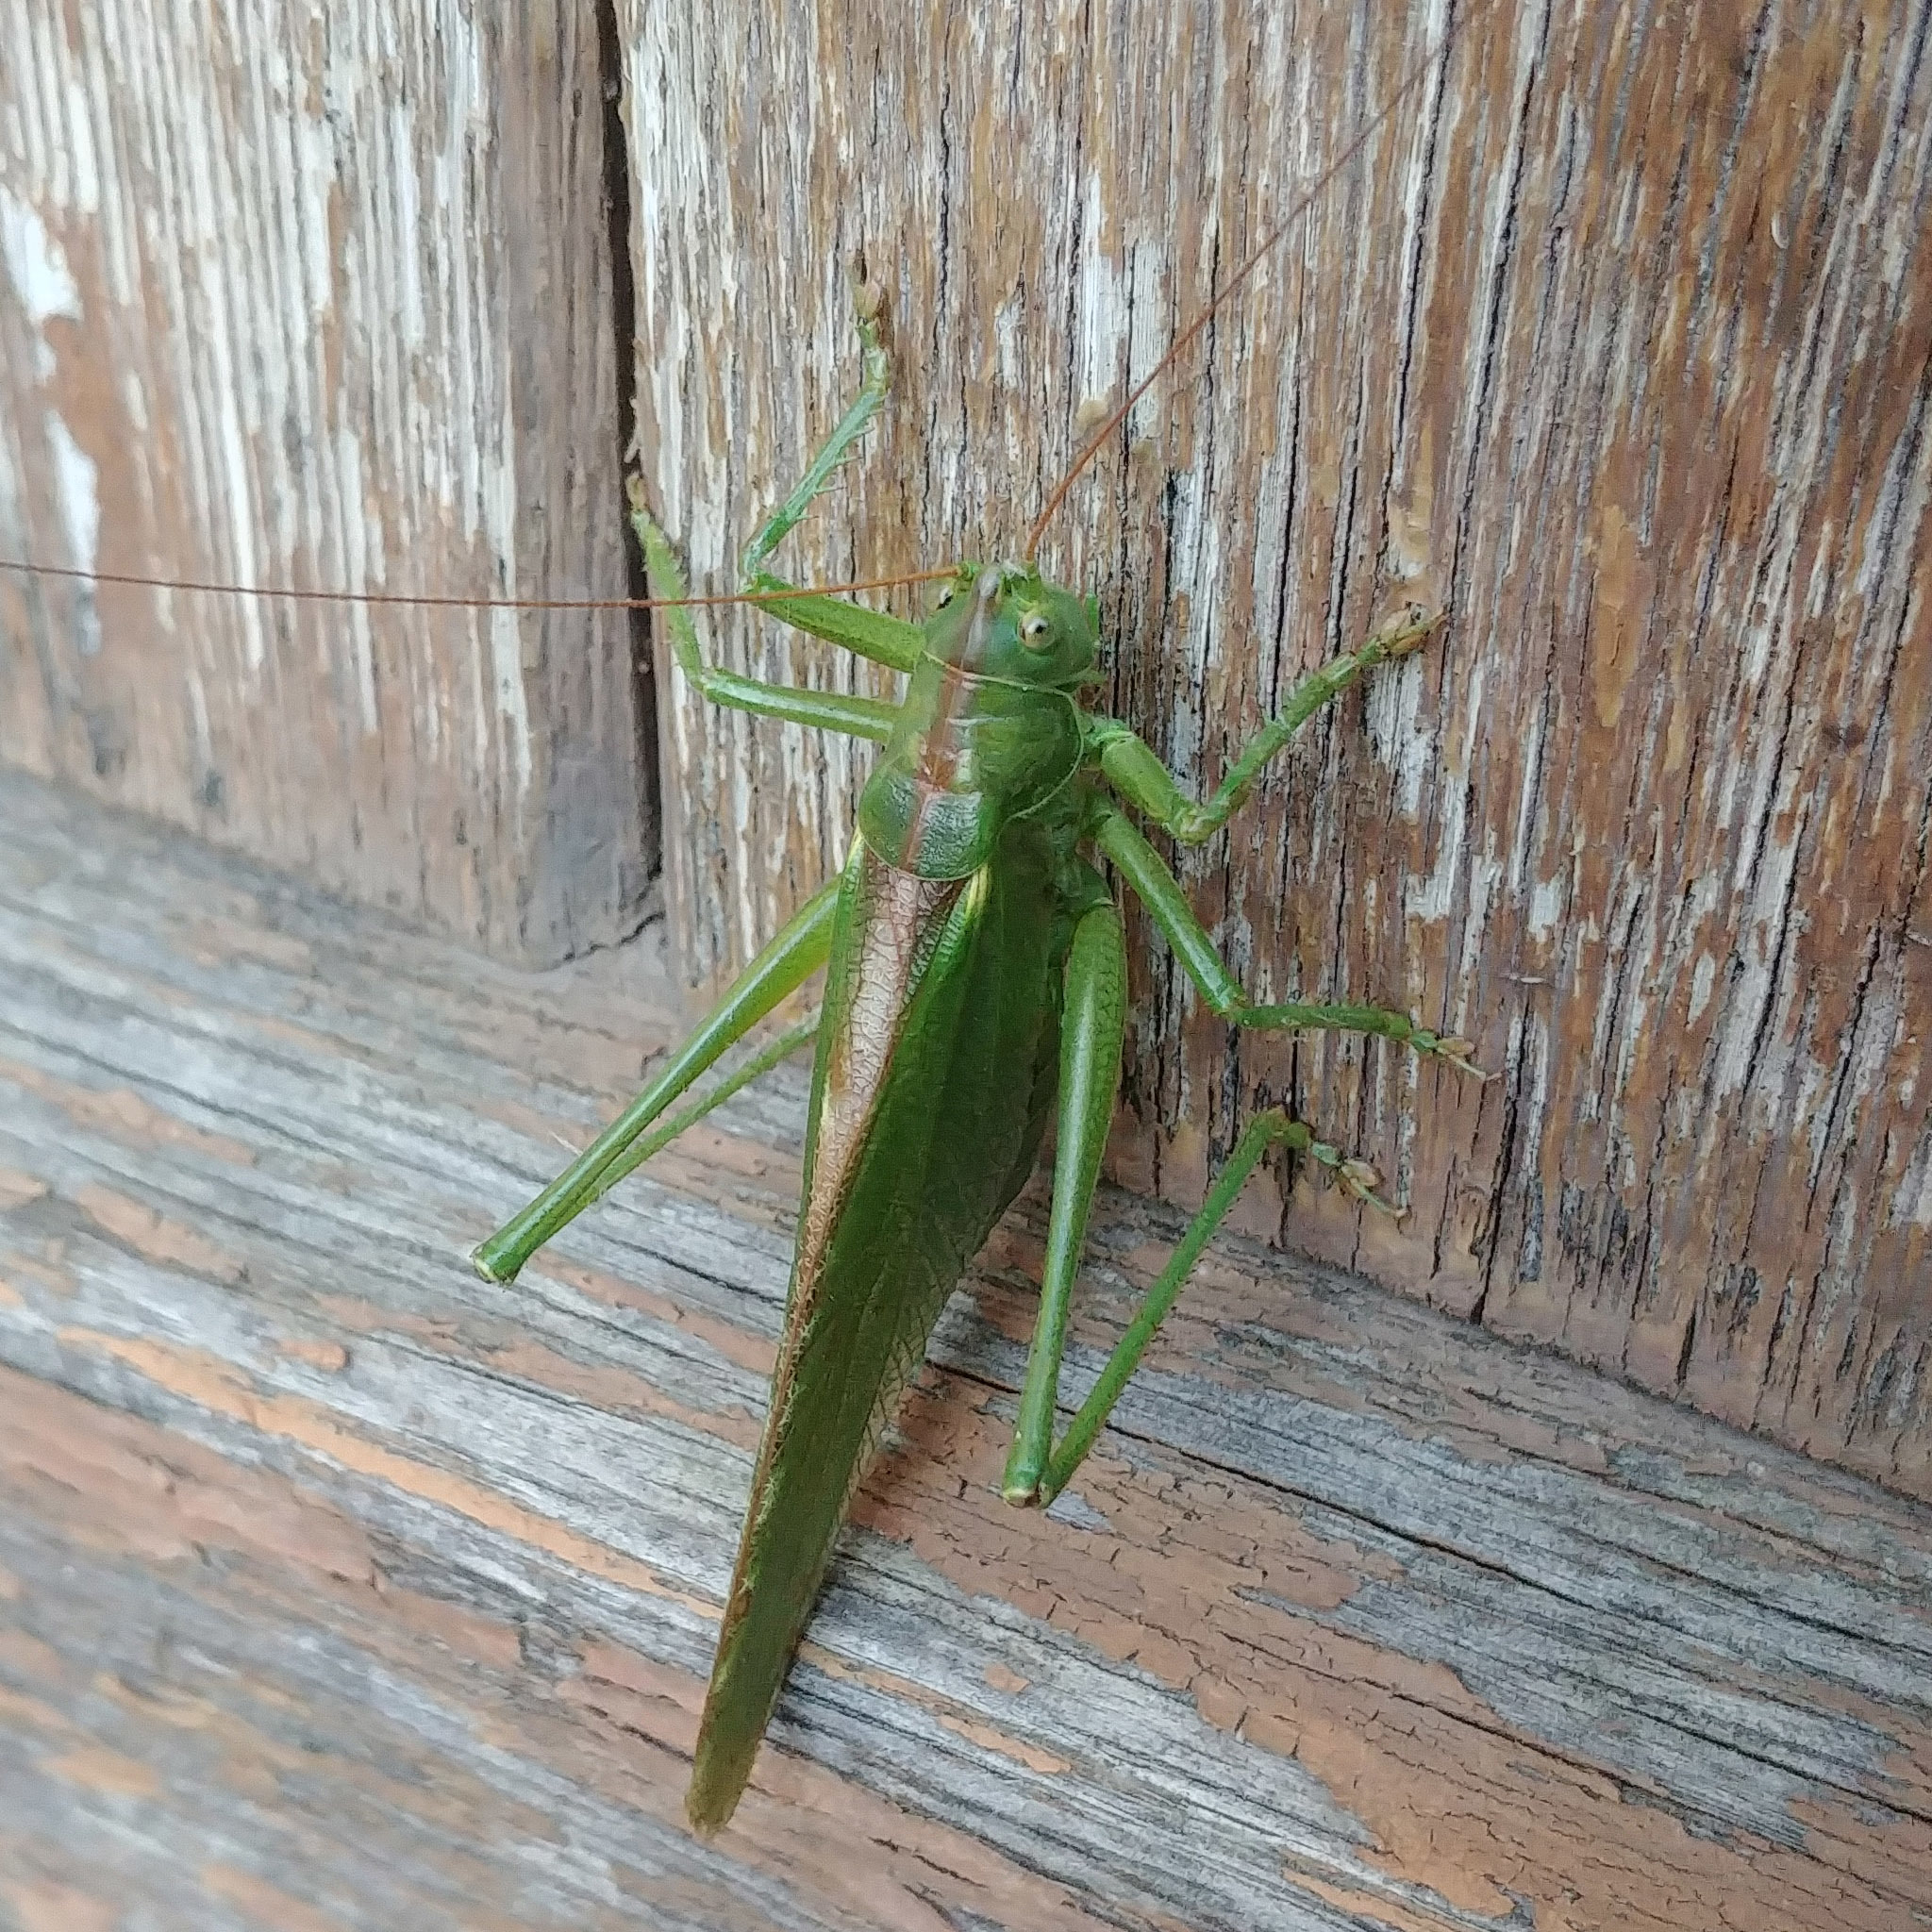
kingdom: Animalia
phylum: Arthropoda
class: Insecta
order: Orthoptera
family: Tettigoniidae
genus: Tettigonia
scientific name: Tettigonia viridissima
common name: Great green bush-cricket
